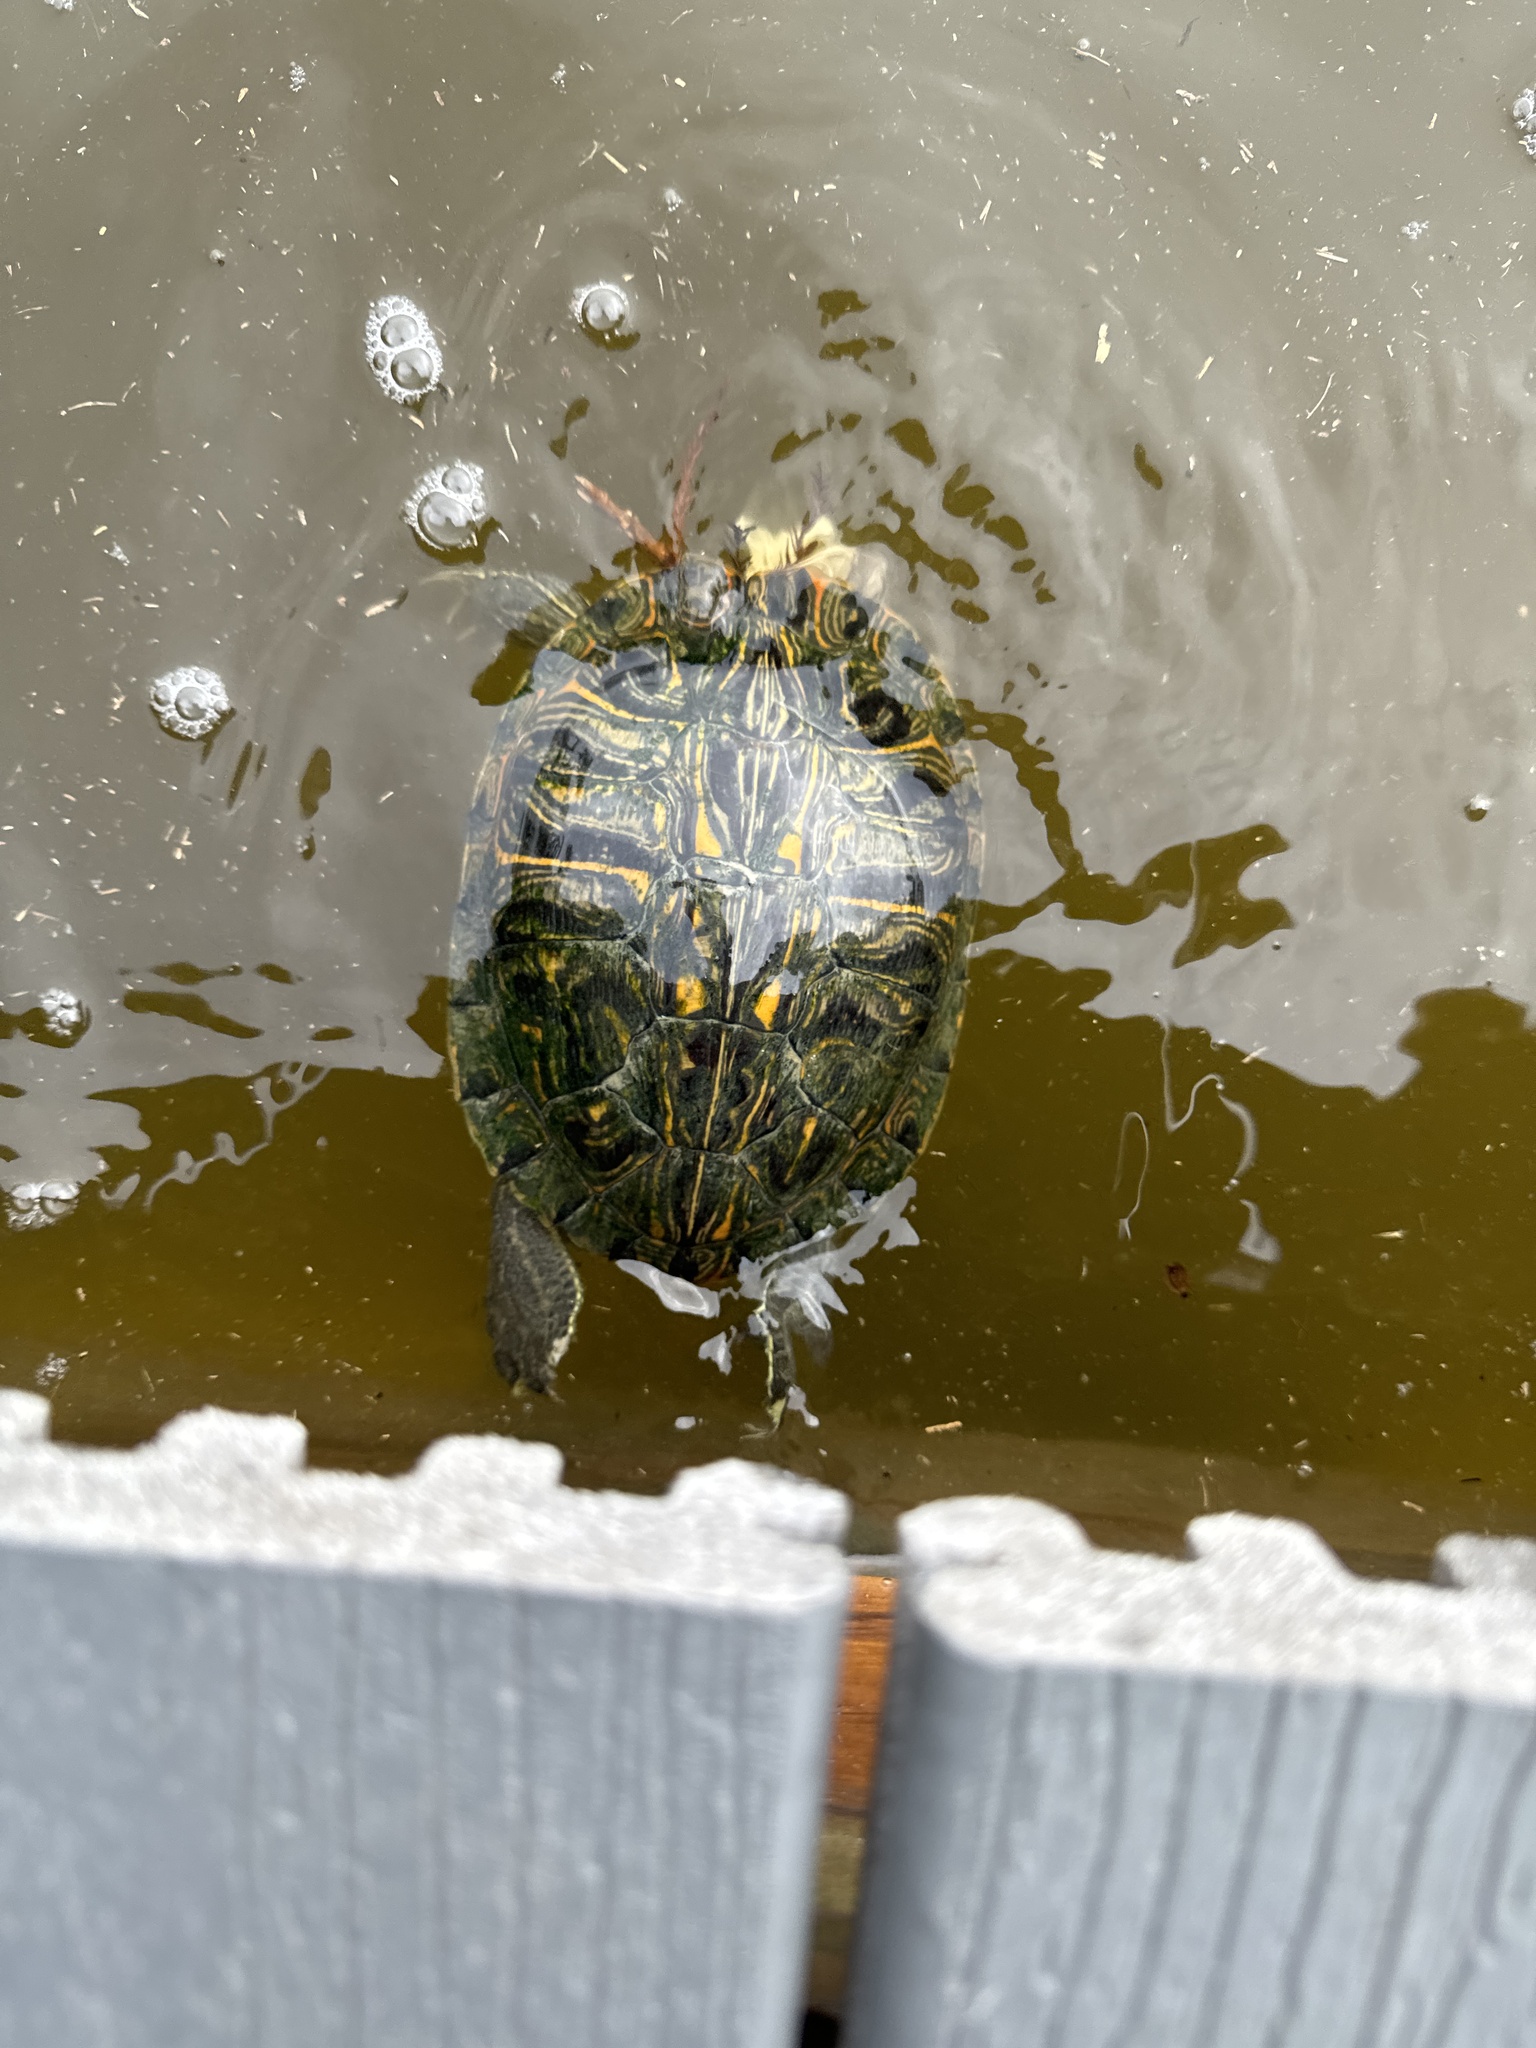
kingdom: Animalia
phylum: Chordata
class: Testudines
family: Emydidae
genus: Trachemys
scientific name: Trachemys scripta
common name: Slider
